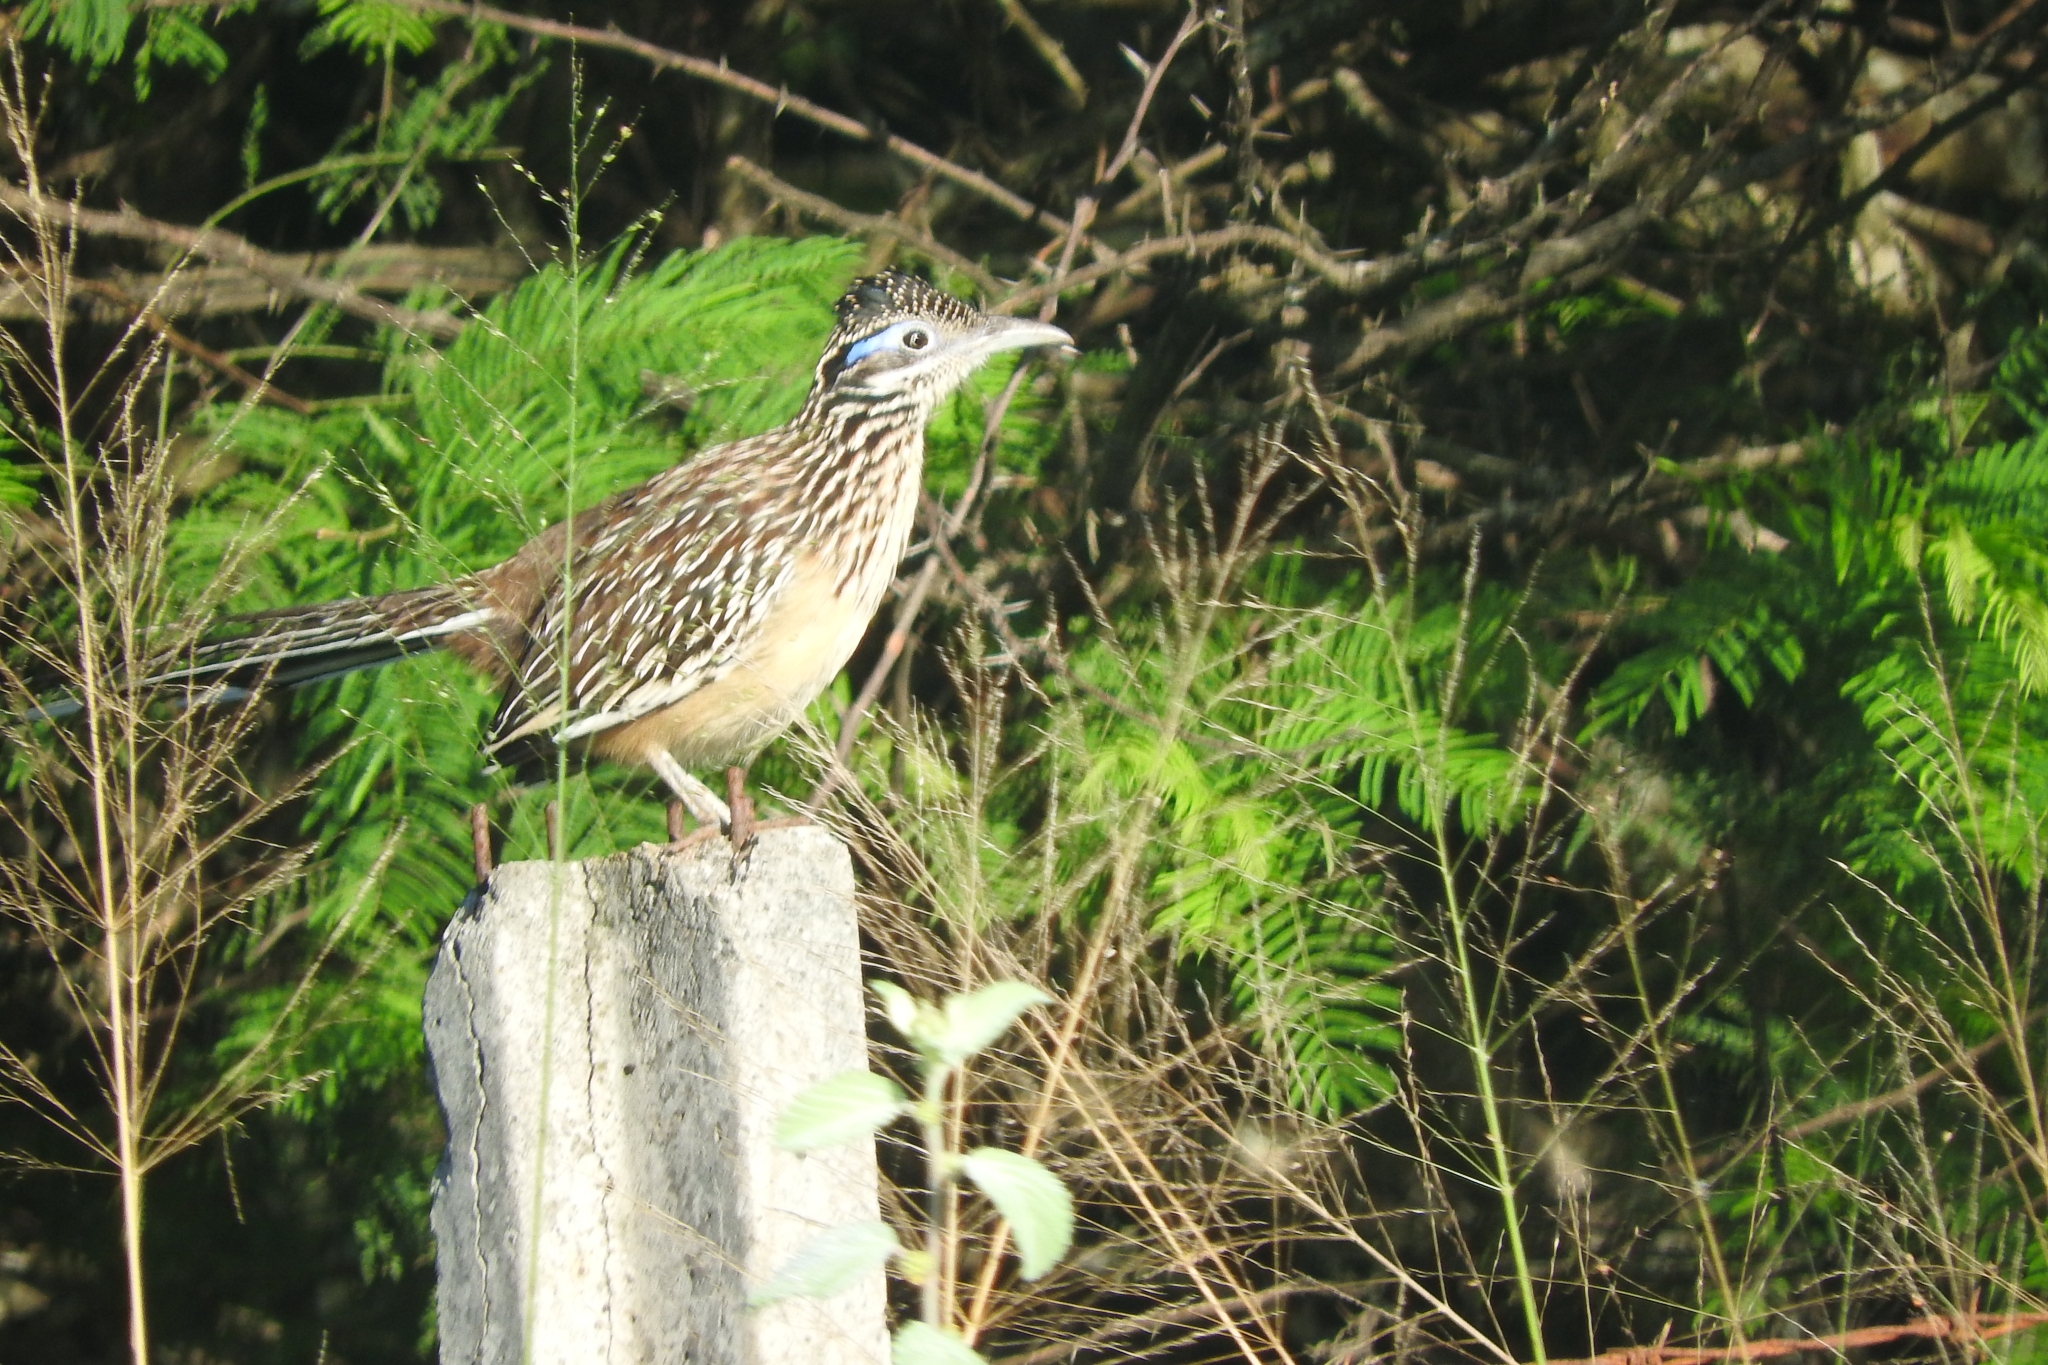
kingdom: Animalia
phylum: Chordata
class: Aves
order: Cuculiformes
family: Cuculidae
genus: Geococcyx
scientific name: Geococcyx velox
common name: Lesser roadrunner
